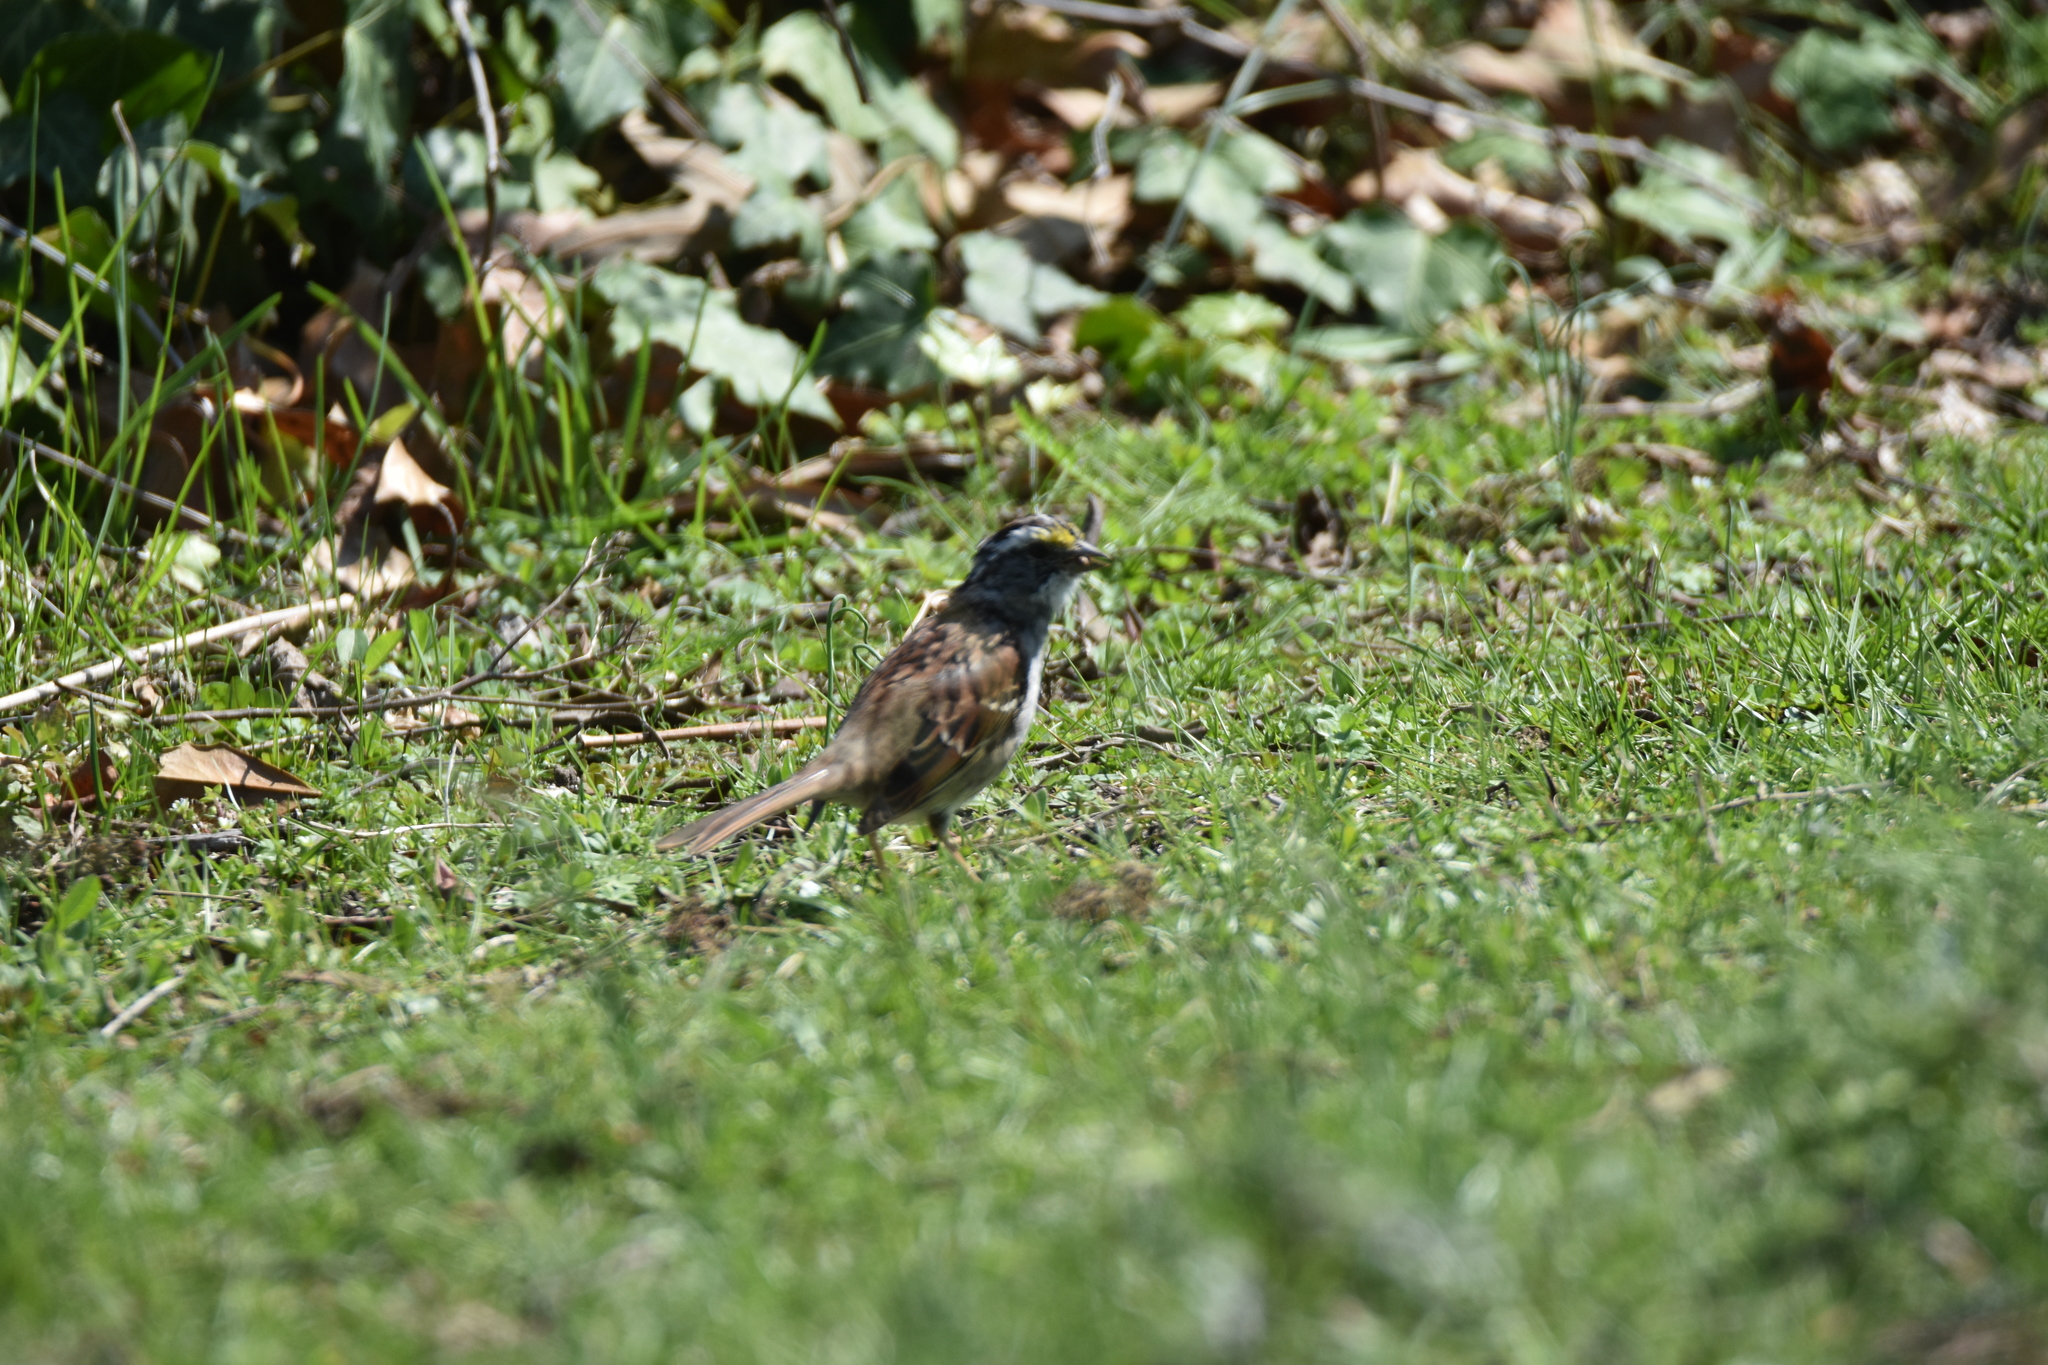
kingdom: Animalia
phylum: Chordata
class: Aves
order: Passeriformes
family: Passerellidae
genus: Zonotrichia
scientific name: Zonotrichia albicollis
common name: White-throated sparrow
